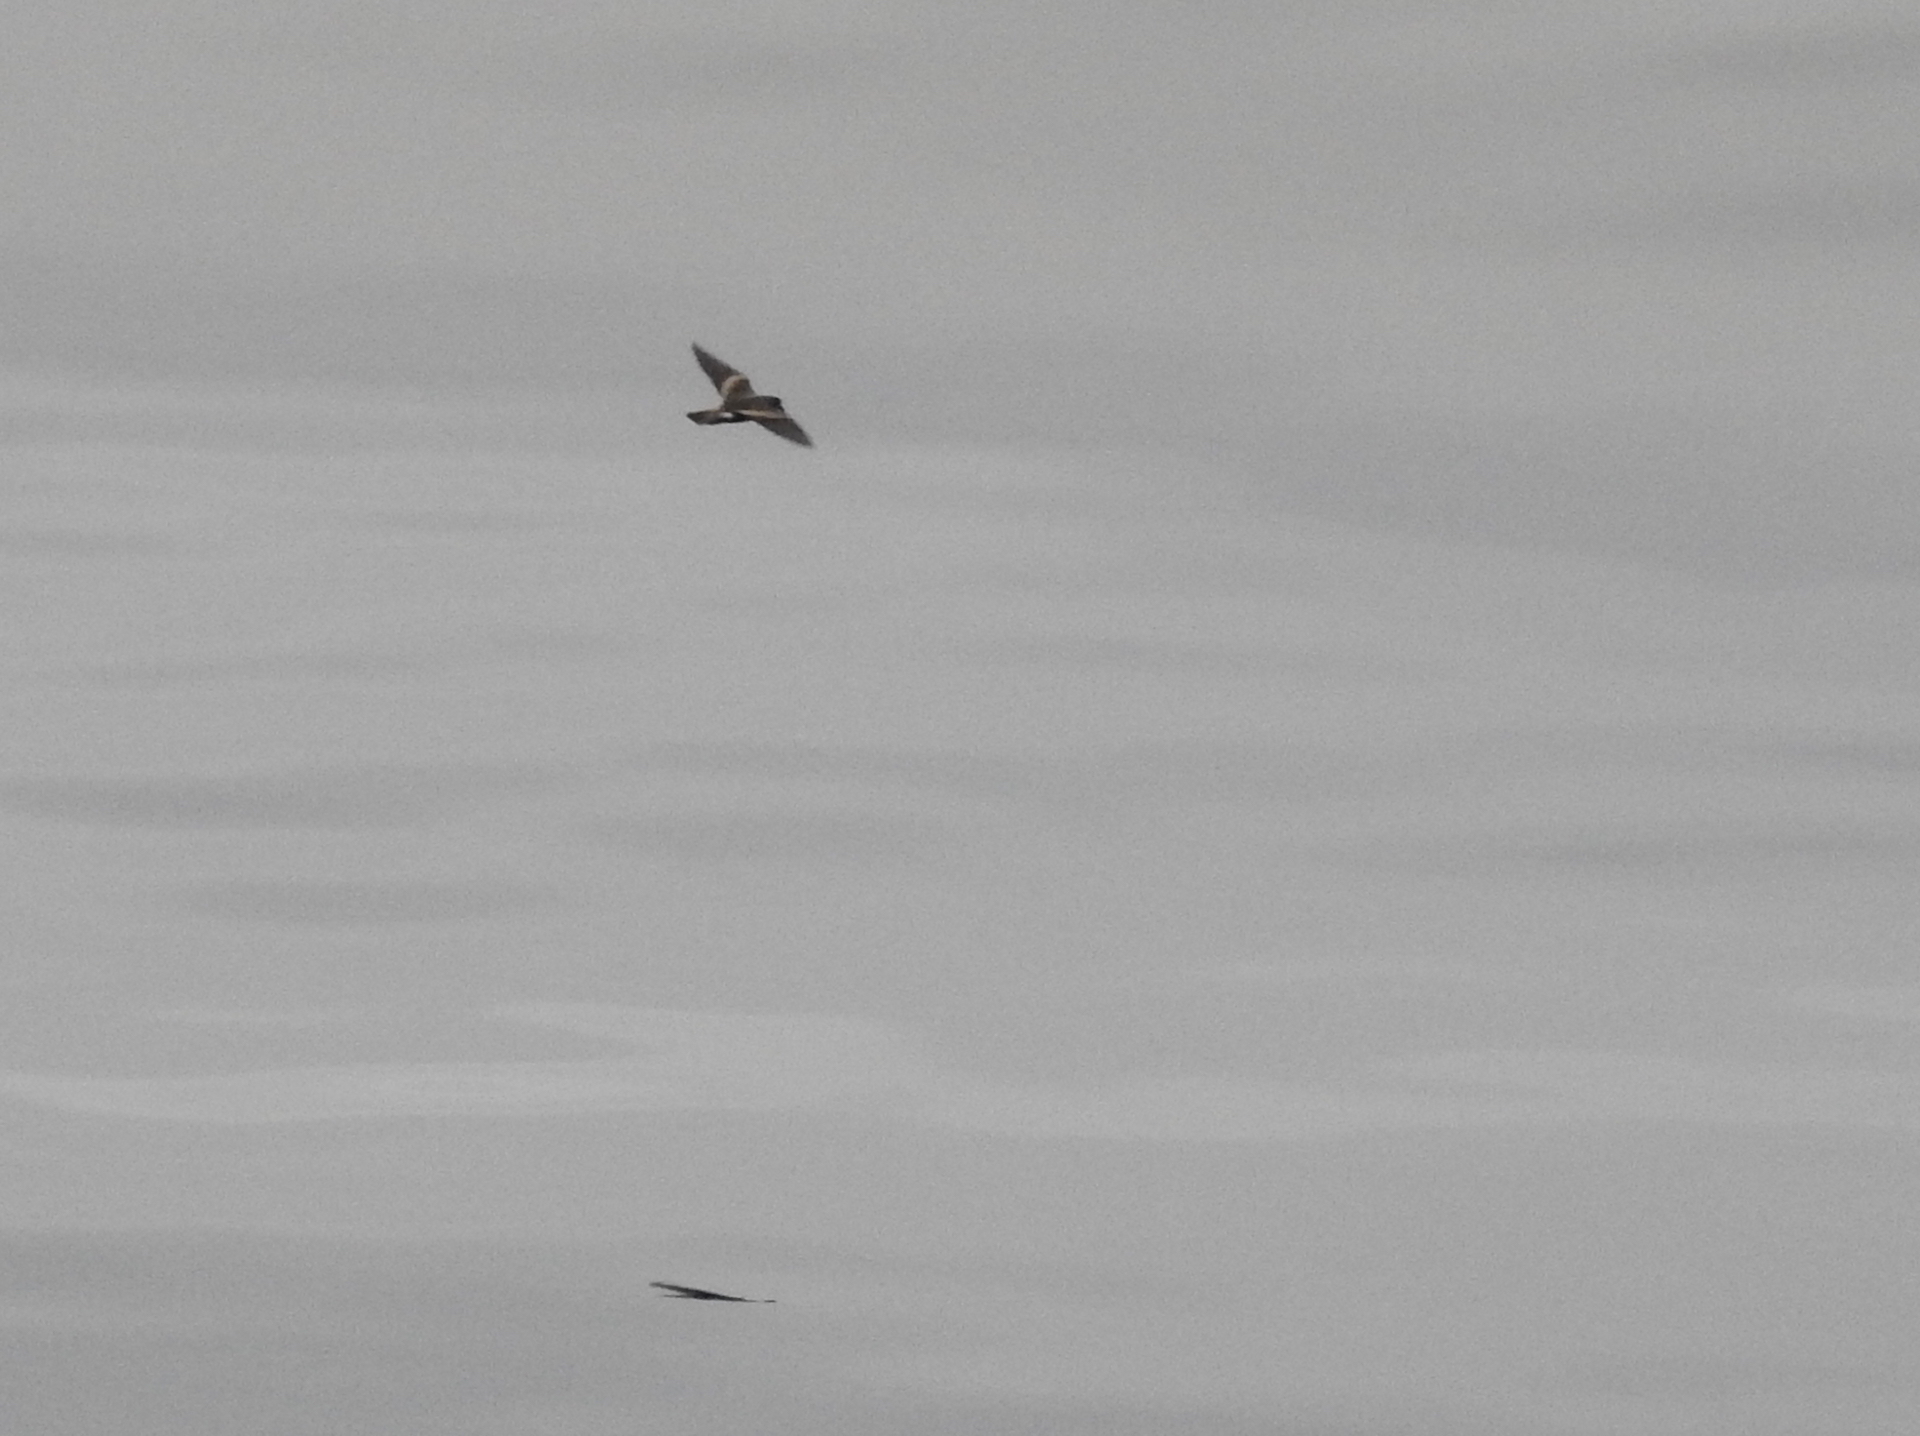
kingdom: Animalia
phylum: Chordata
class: Aves
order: Procellariiformes
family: Hydrobatidae
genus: Oceanodroma
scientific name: Oceanodroma leucorhoa
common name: Leach's storm-petrel
